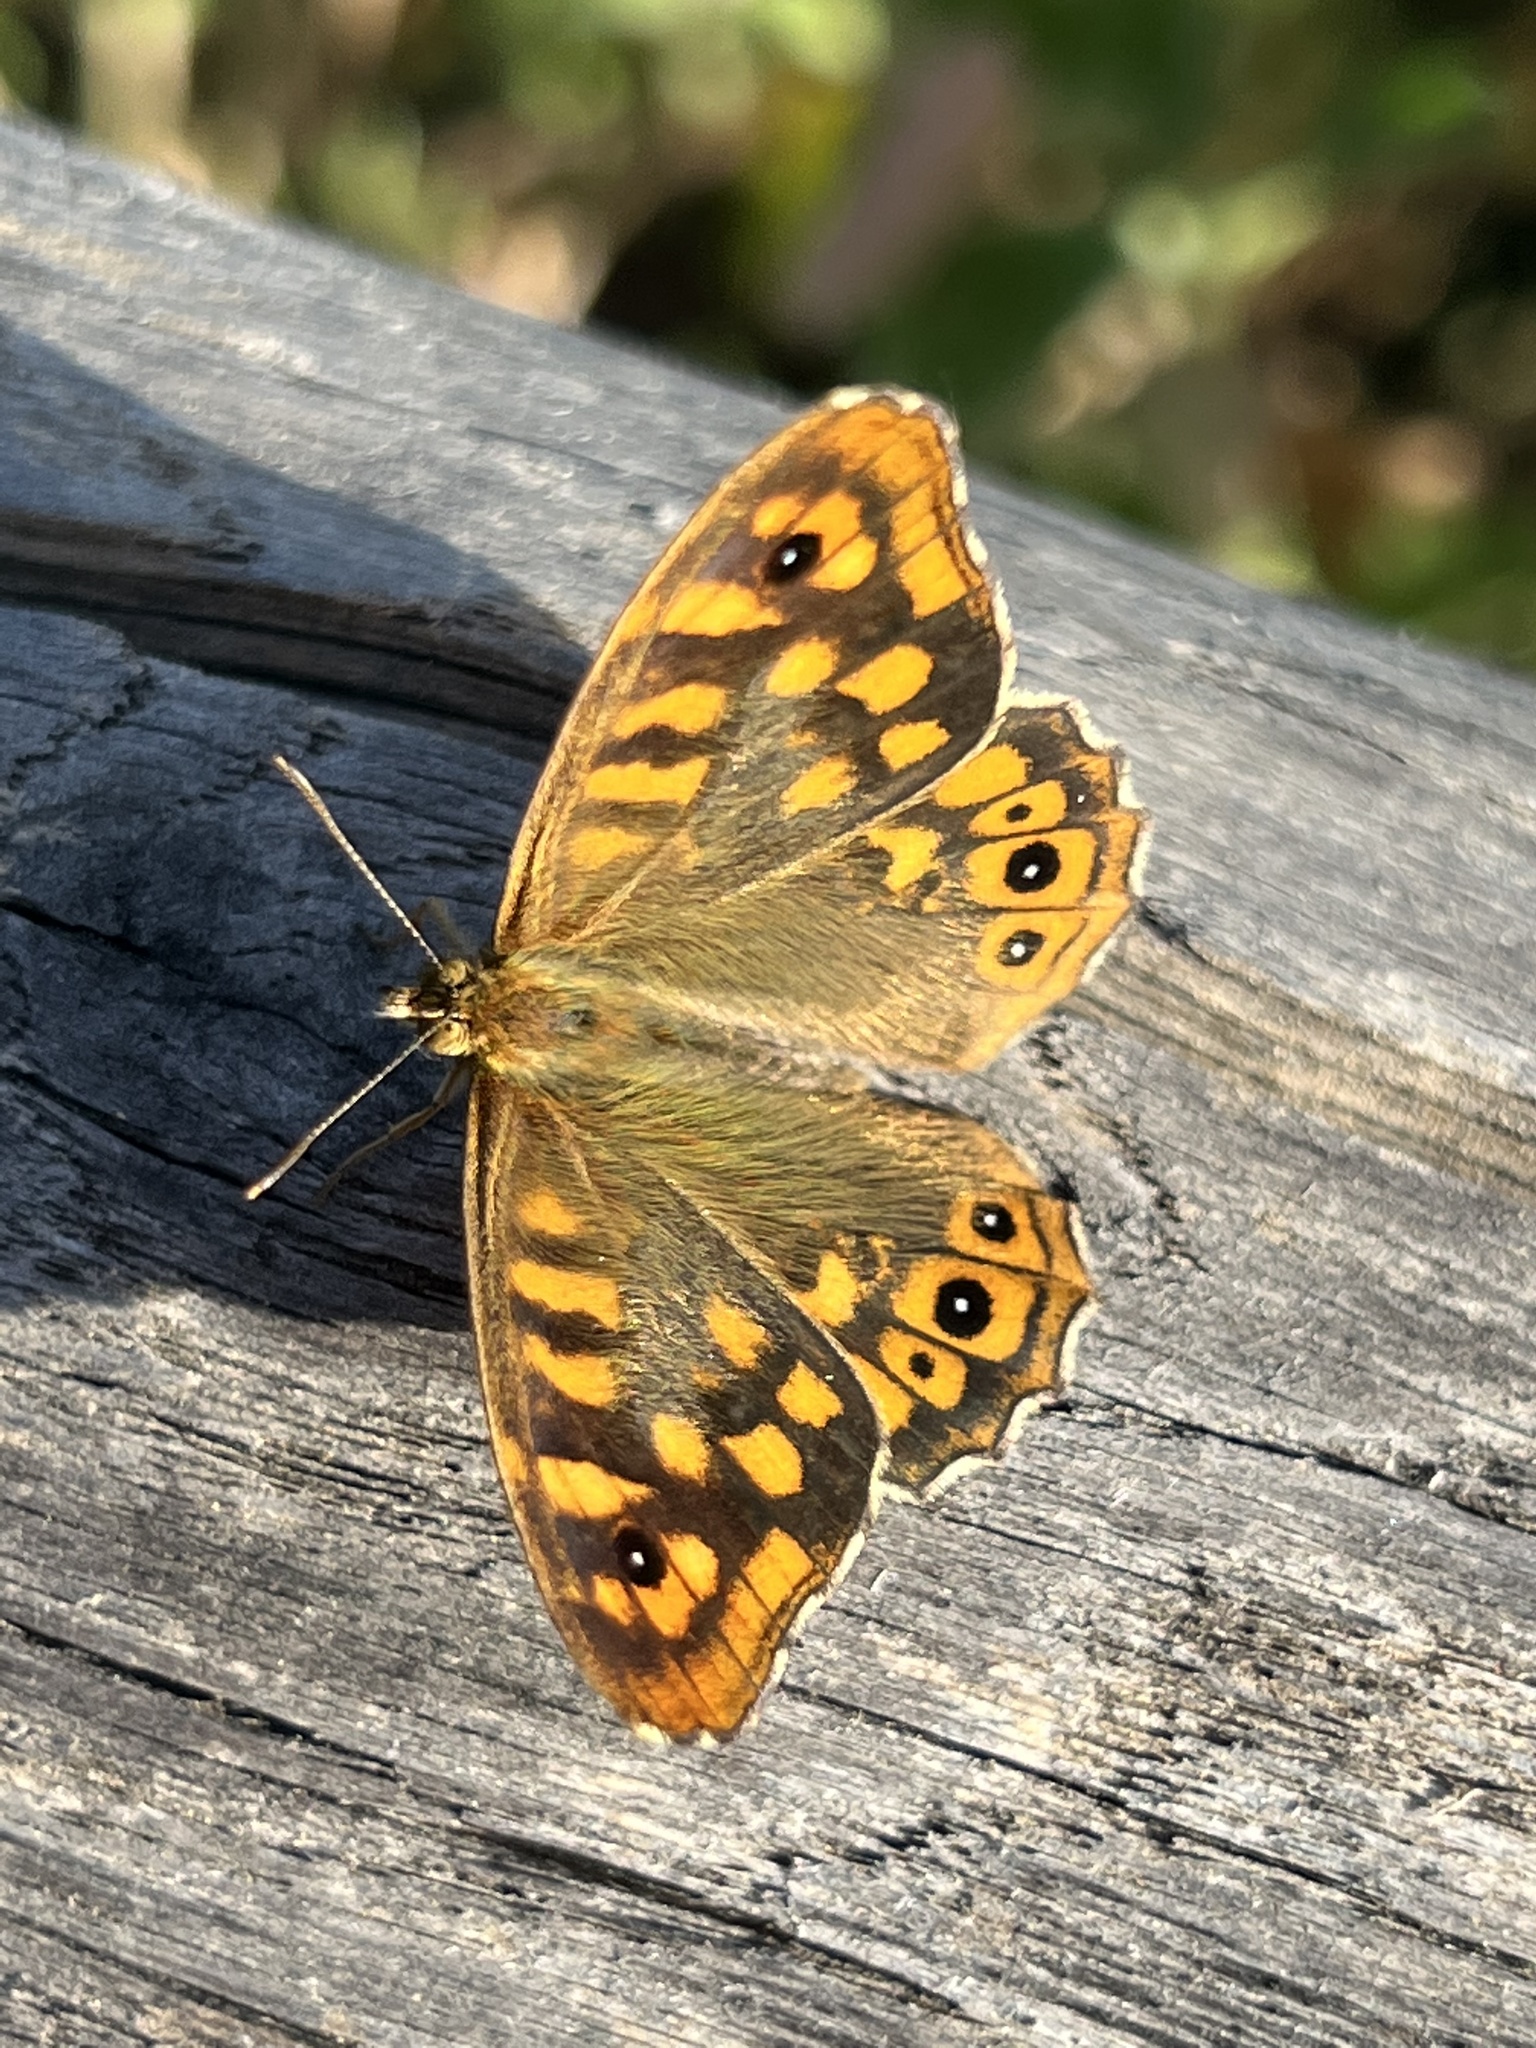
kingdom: Animalia
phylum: Arthropoda
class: Insecta
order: Lepidoptera
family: Nymphalidae
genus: Pararge
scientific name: Pararge aegeria
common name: Speckled wood
